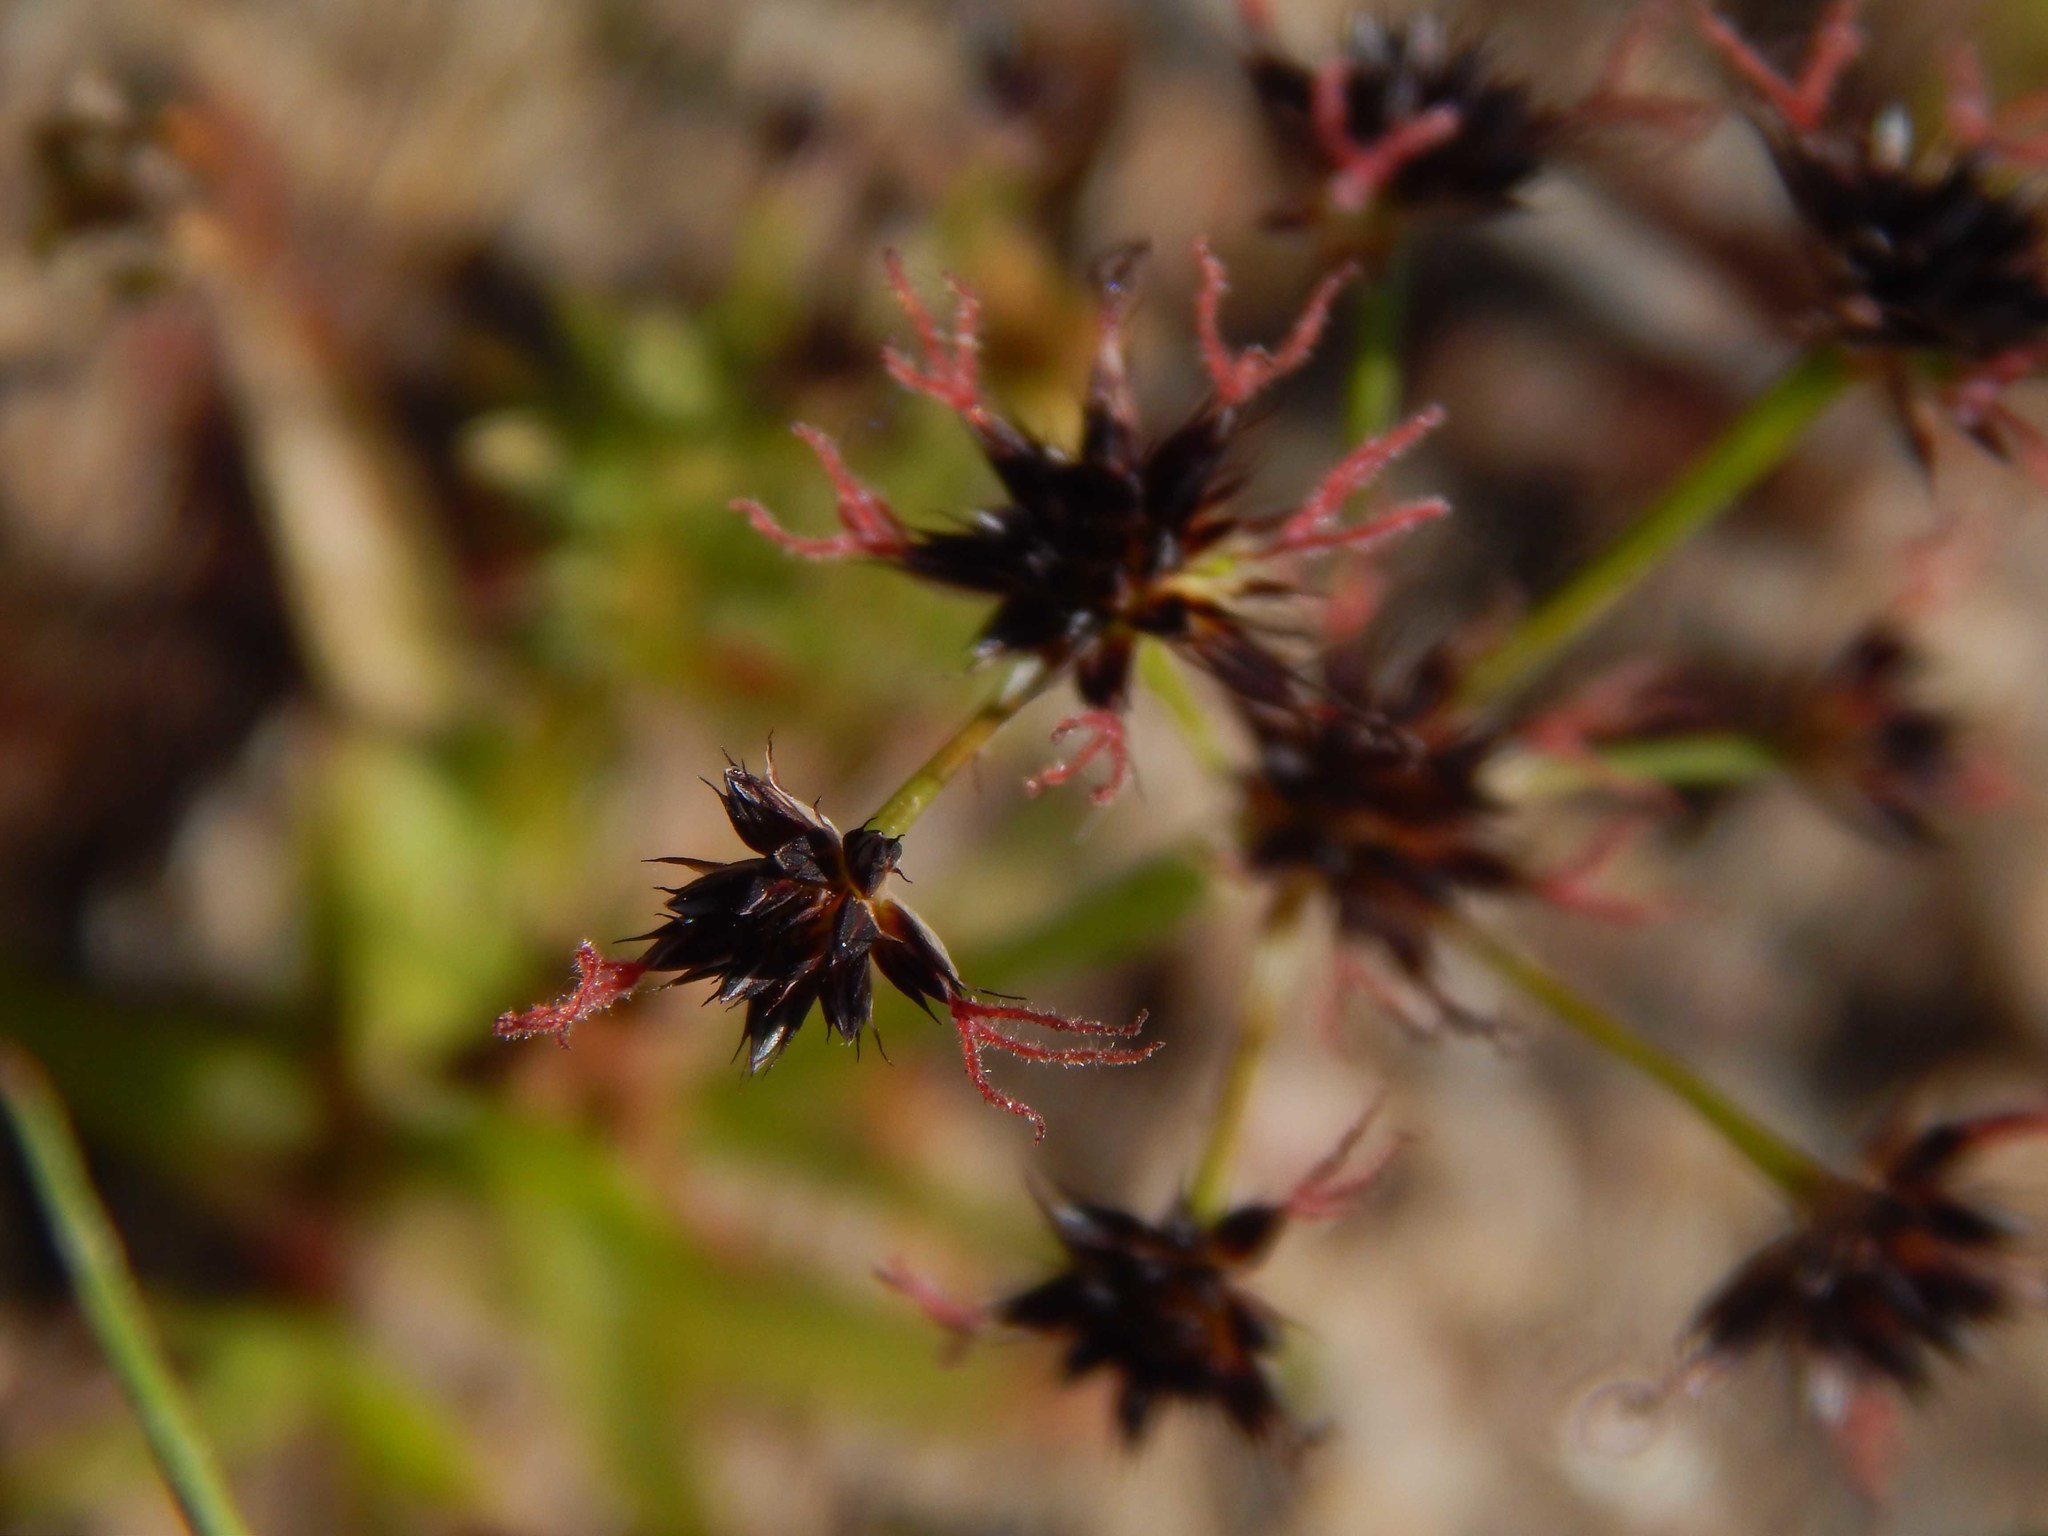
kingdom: Plantae
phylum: Tracheophyta
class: Liliopsida
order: Poales
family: Juncaceae
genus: Juncus
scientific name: Juncus cephalotes
